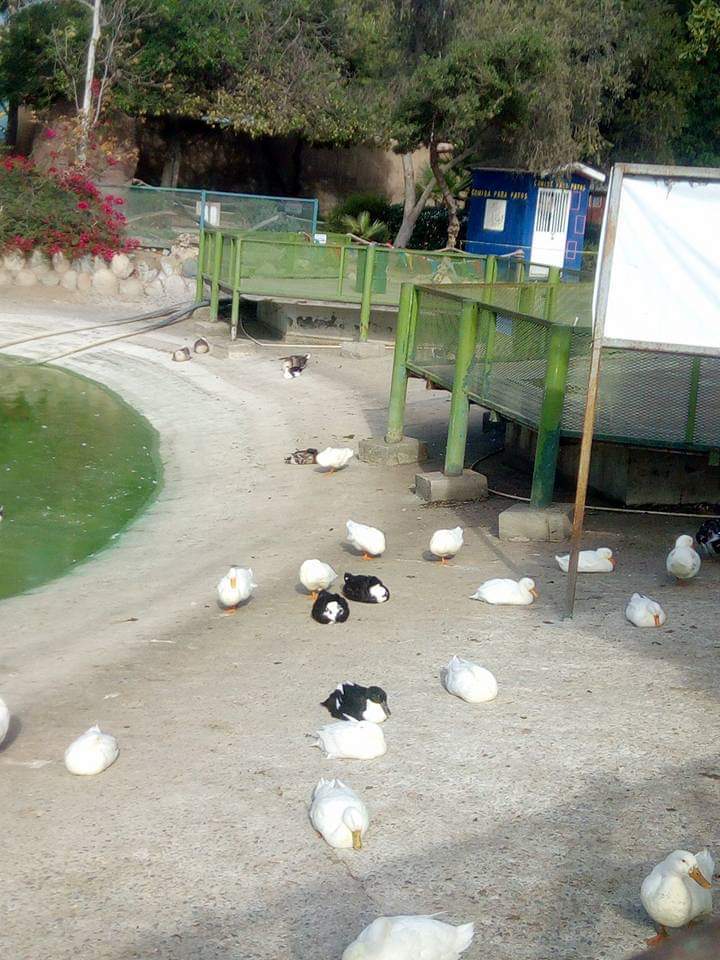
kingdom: Animalia
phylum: Chordata
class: Aves
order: Anseriformes
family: Anatidae
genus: Anas
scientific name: Anas platyrhynchos
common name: Mallard
